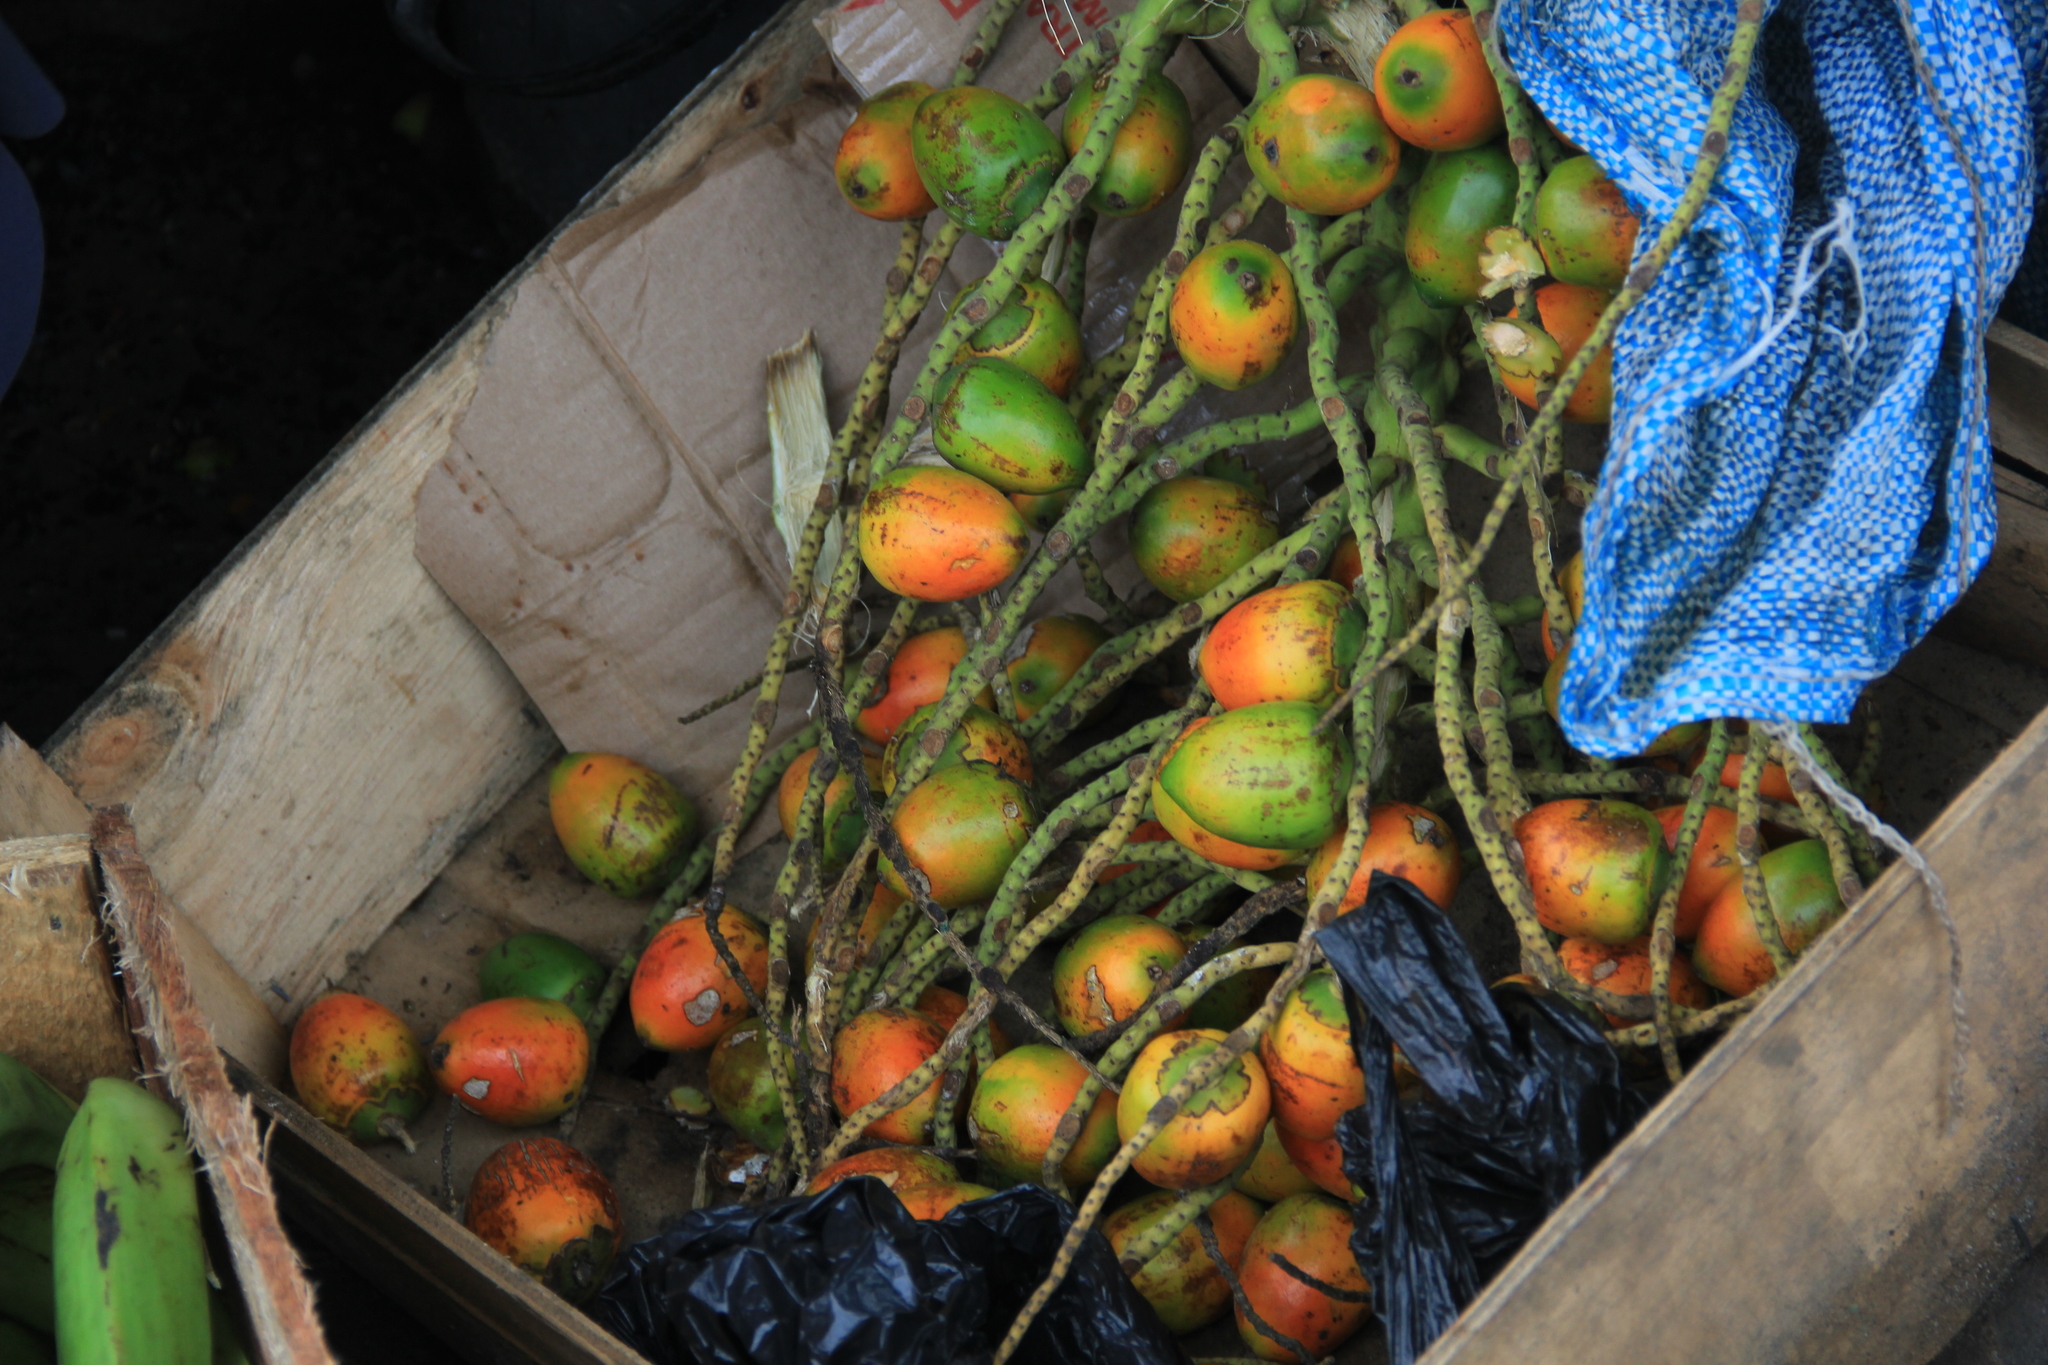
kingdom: Plantae
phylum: Tracheophyta
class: Liliopsida
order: Arecales
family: Arecaceae
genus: Bactris
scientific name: Bactris gasipaes
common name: Peach palm
